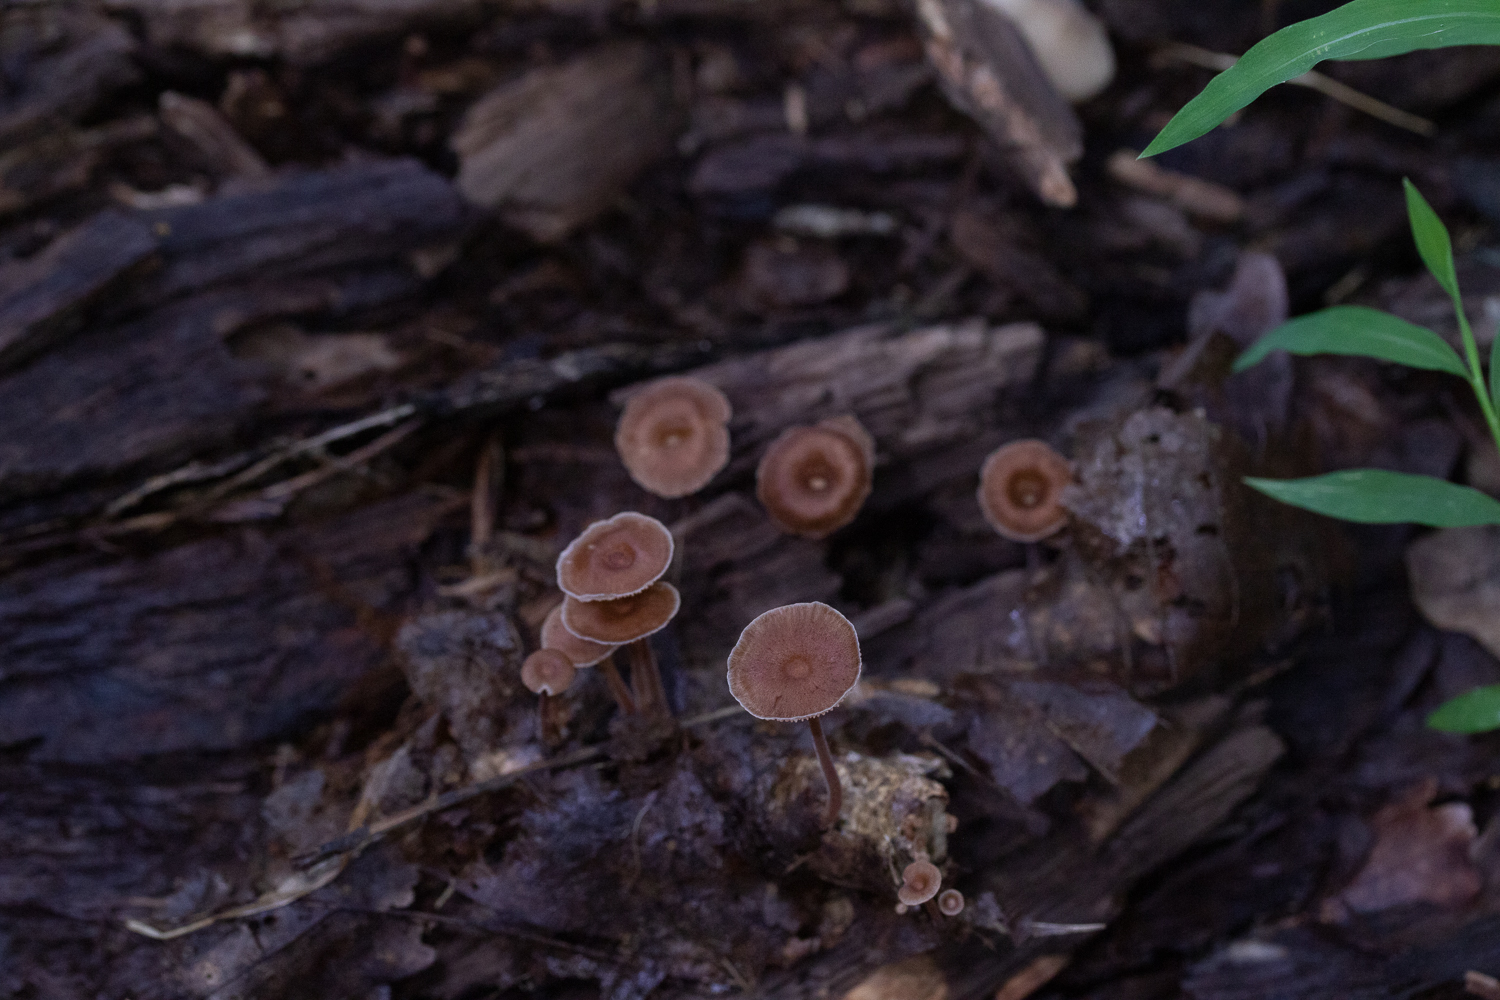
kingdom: Fungi
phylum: Basidiomycota
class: Agaricomycetes
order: Agaricales
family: Omphalotaceae
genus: Collybiopsis
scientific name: Collybiopsis dichroa
